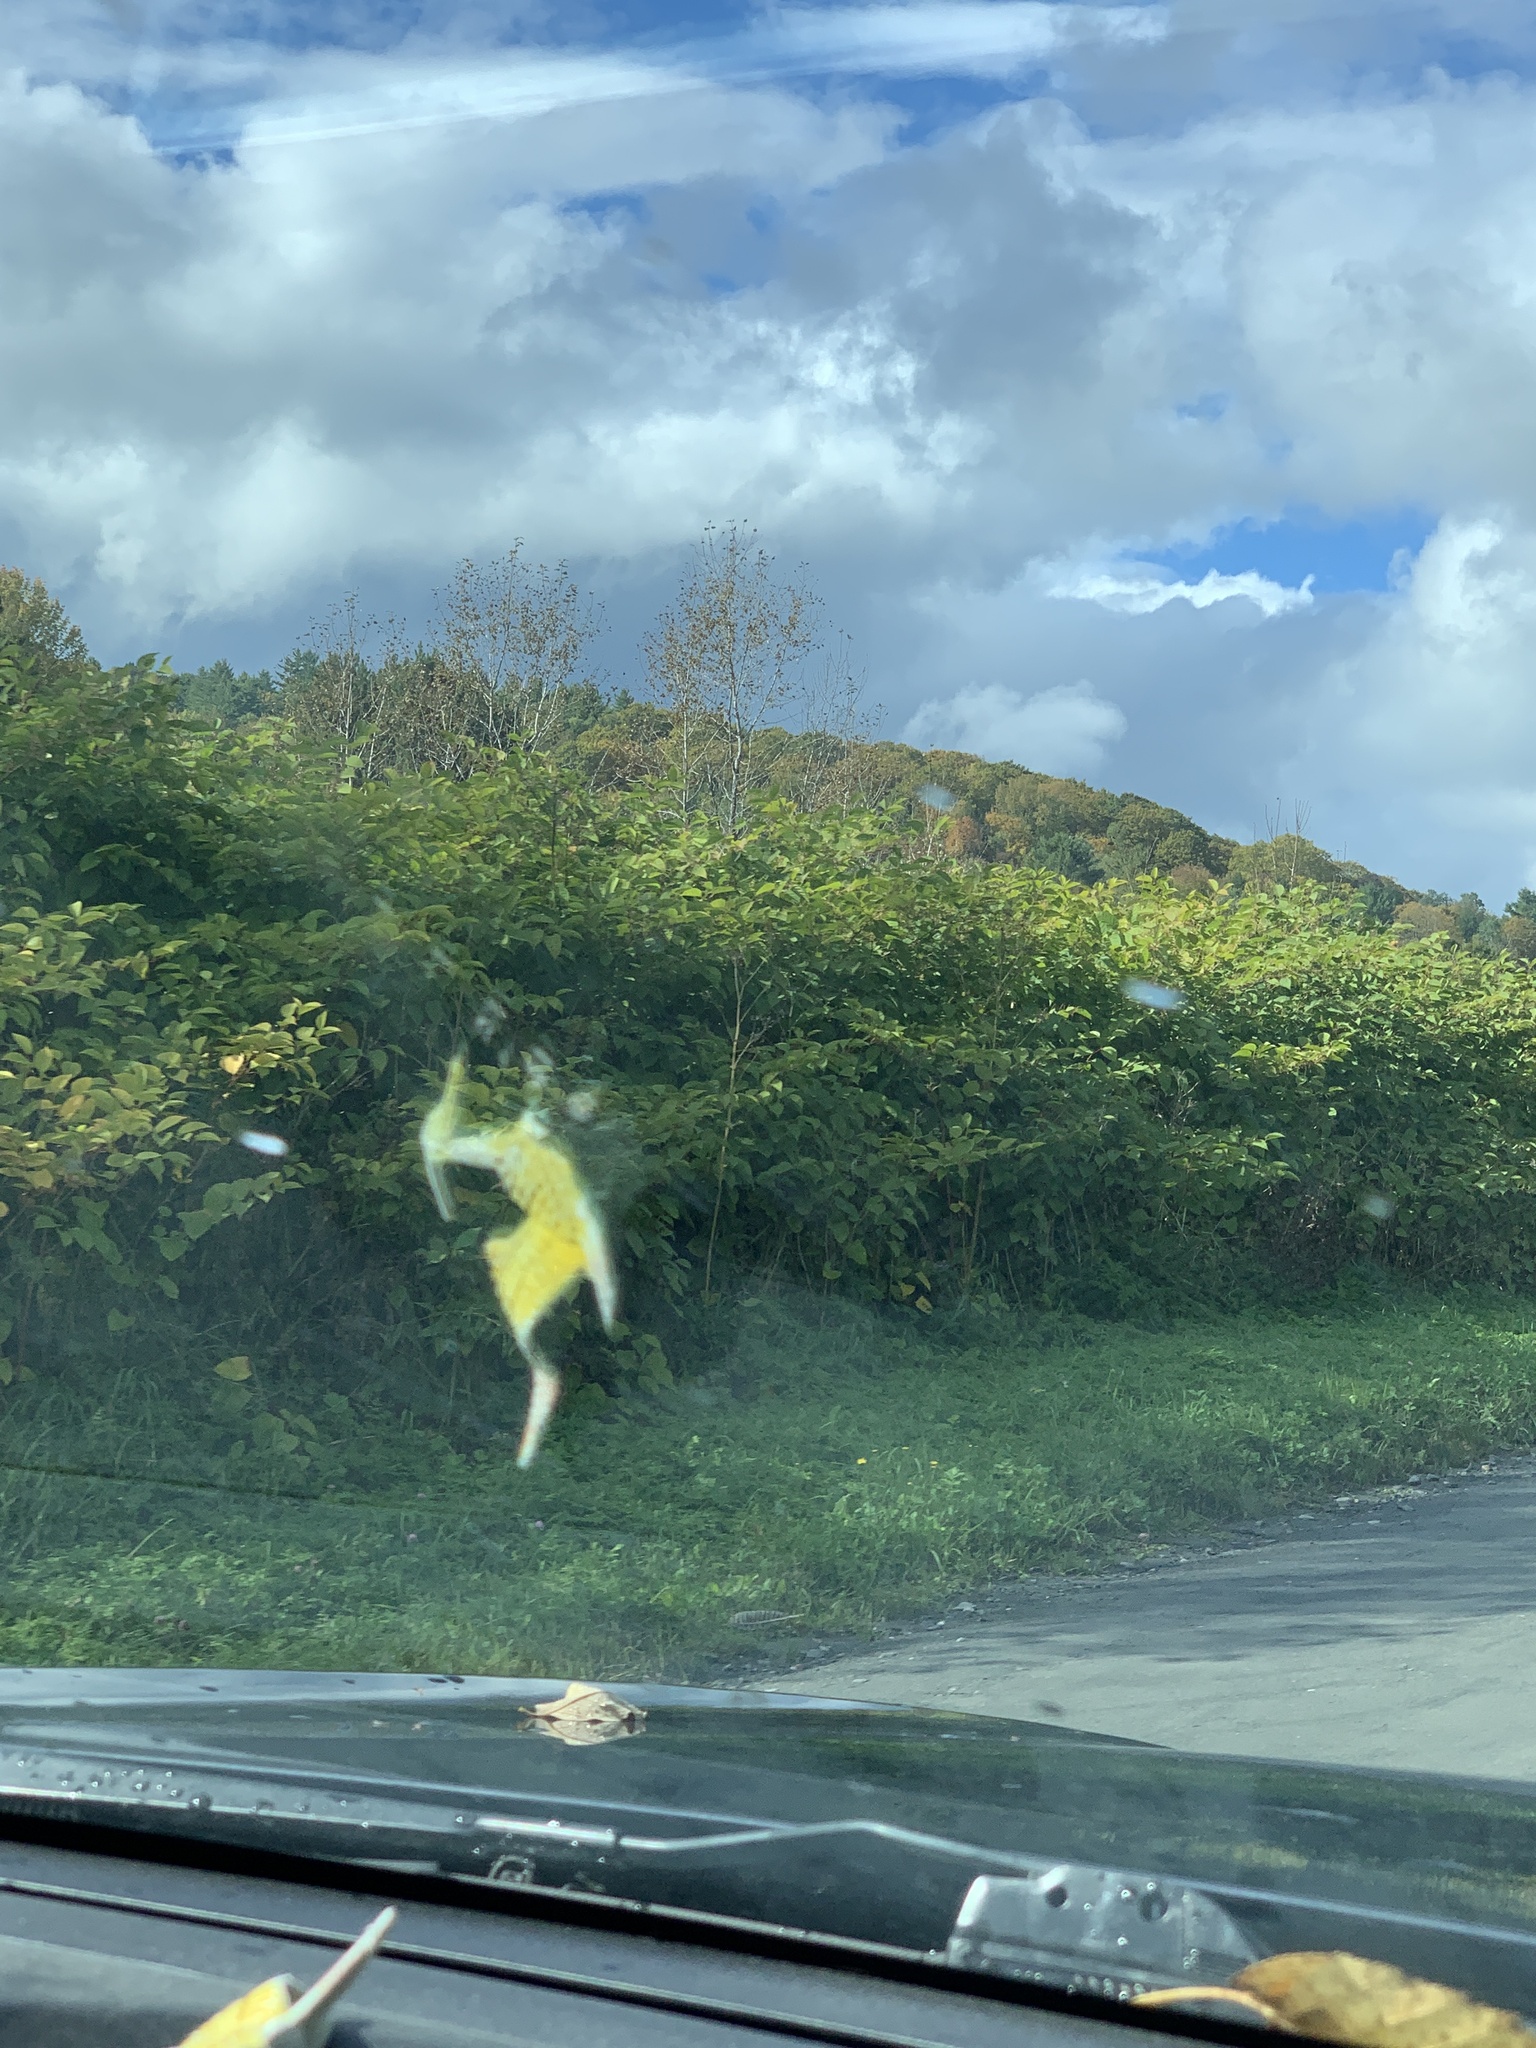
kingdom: Plantae
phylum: Tracheophyta
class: Magnoliopsida
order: Caryophyllales
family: Polygonaceae
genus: Reynoutria
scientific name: Reynoutria japonica
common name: Japanese knotweed
